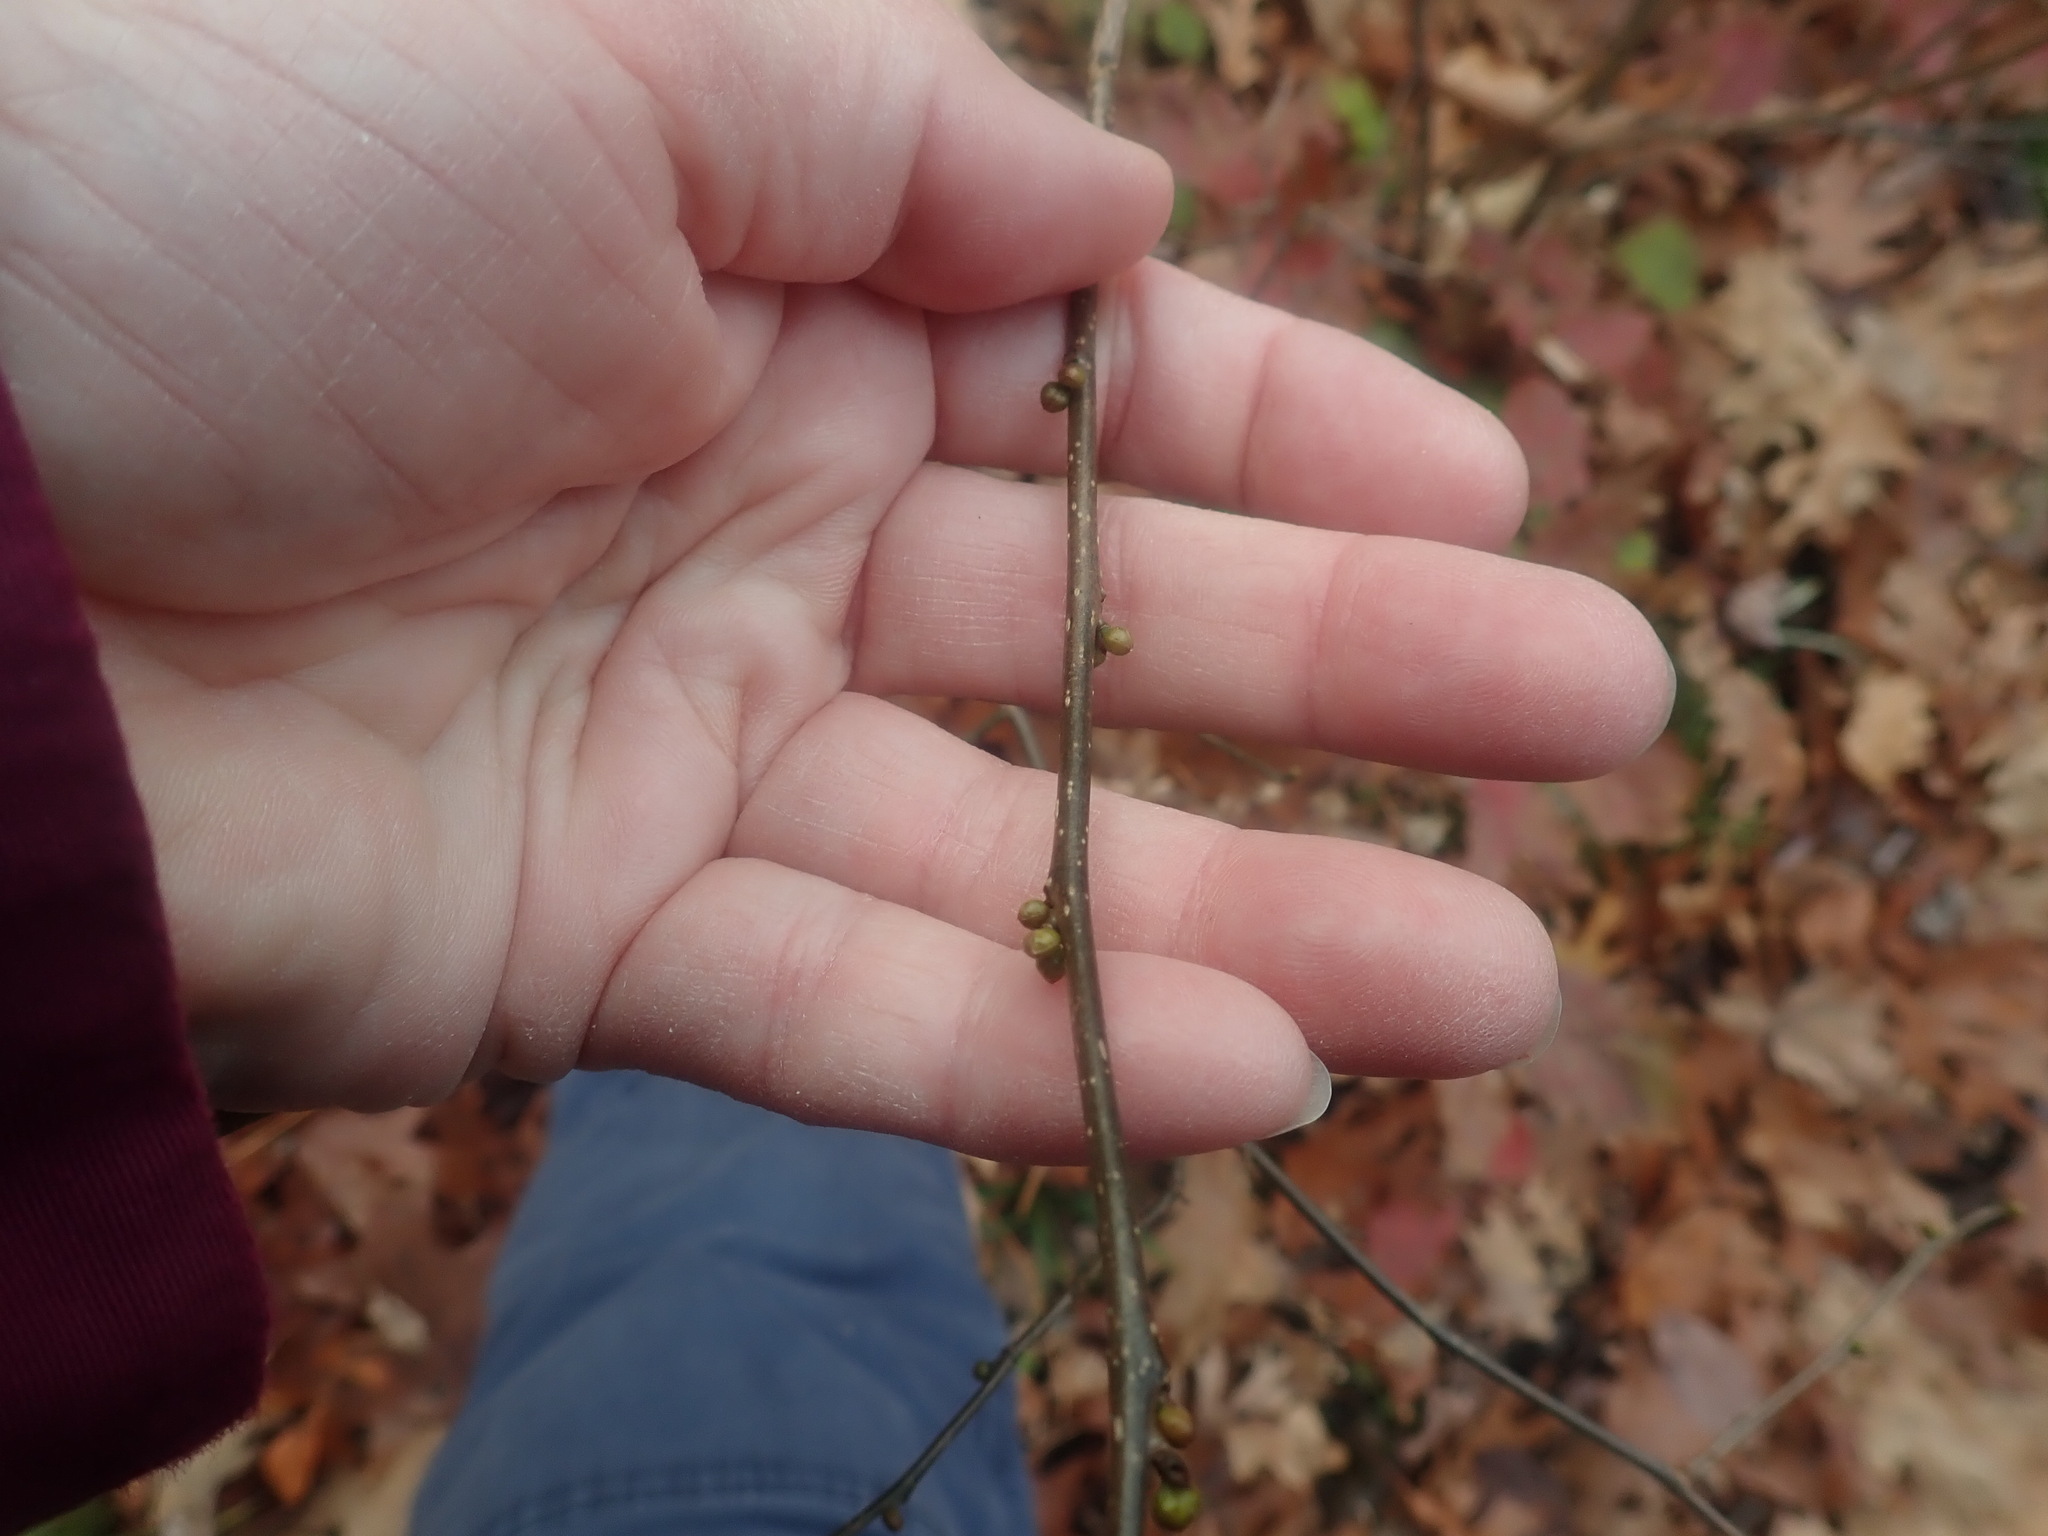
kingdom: Plantae
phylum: Tracheophyta
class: Magnoliopsida
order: Laurales
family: Lauraceae
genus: Lindera
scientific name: Lindera benzoin
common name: Spicebush
